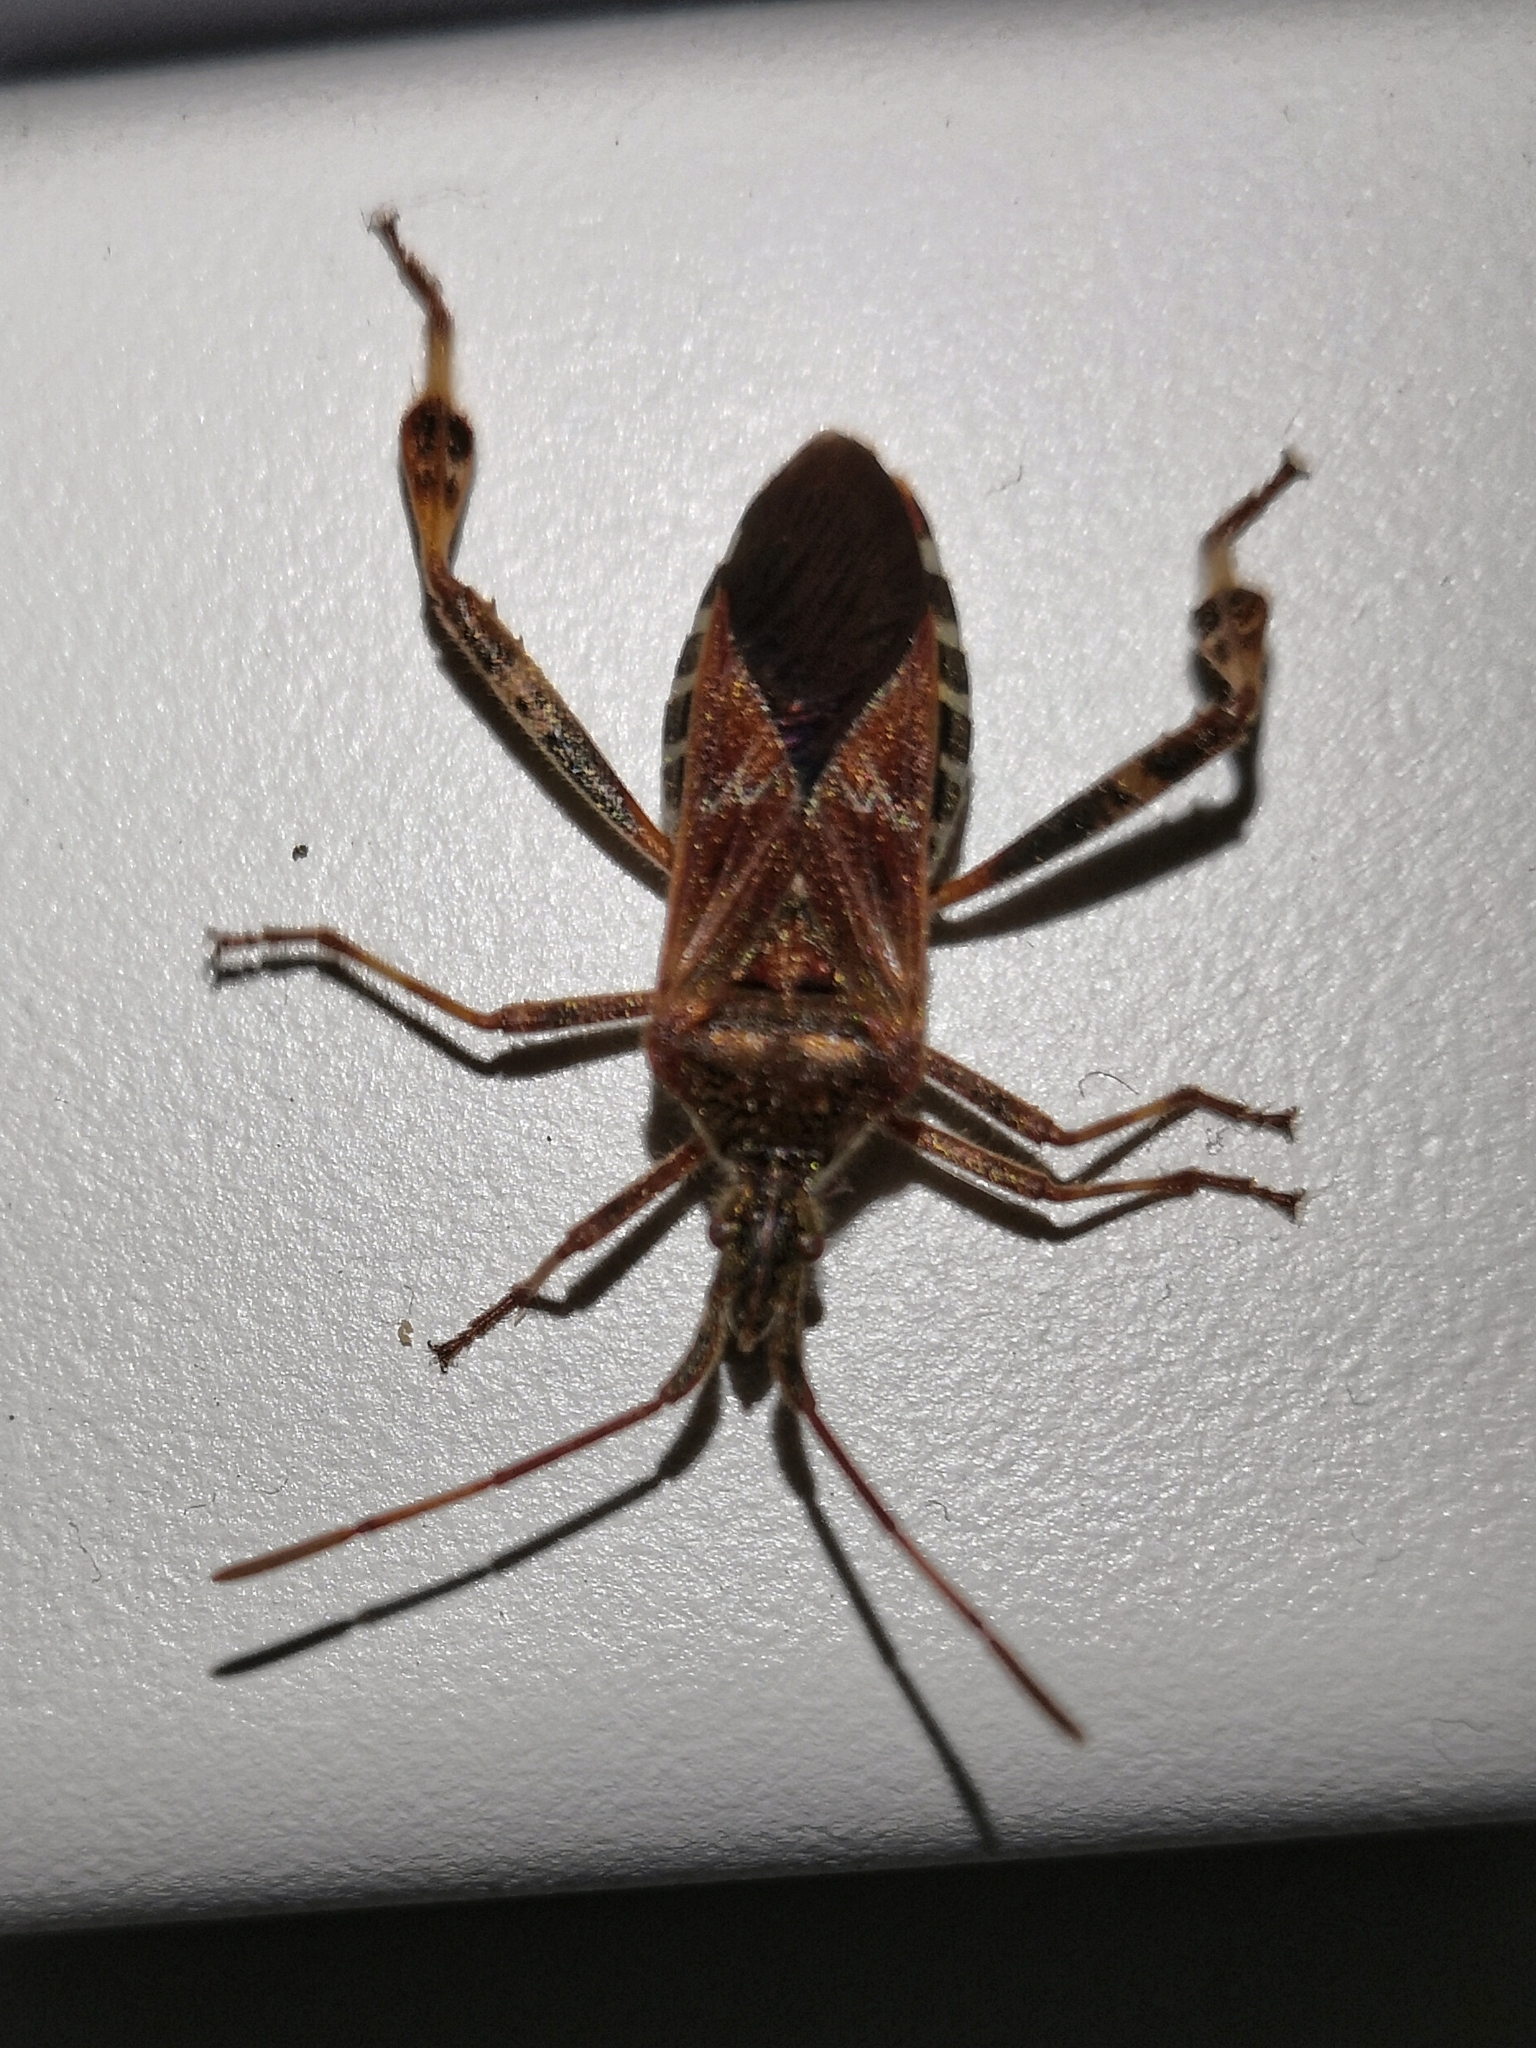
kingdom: Animalia
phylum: Arthropoda
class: Insecta
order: Hemiptera
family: Coreidae
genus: Leptoglossus
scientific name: Leptoglossus occidentalis
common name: Western conifer-seed bug
